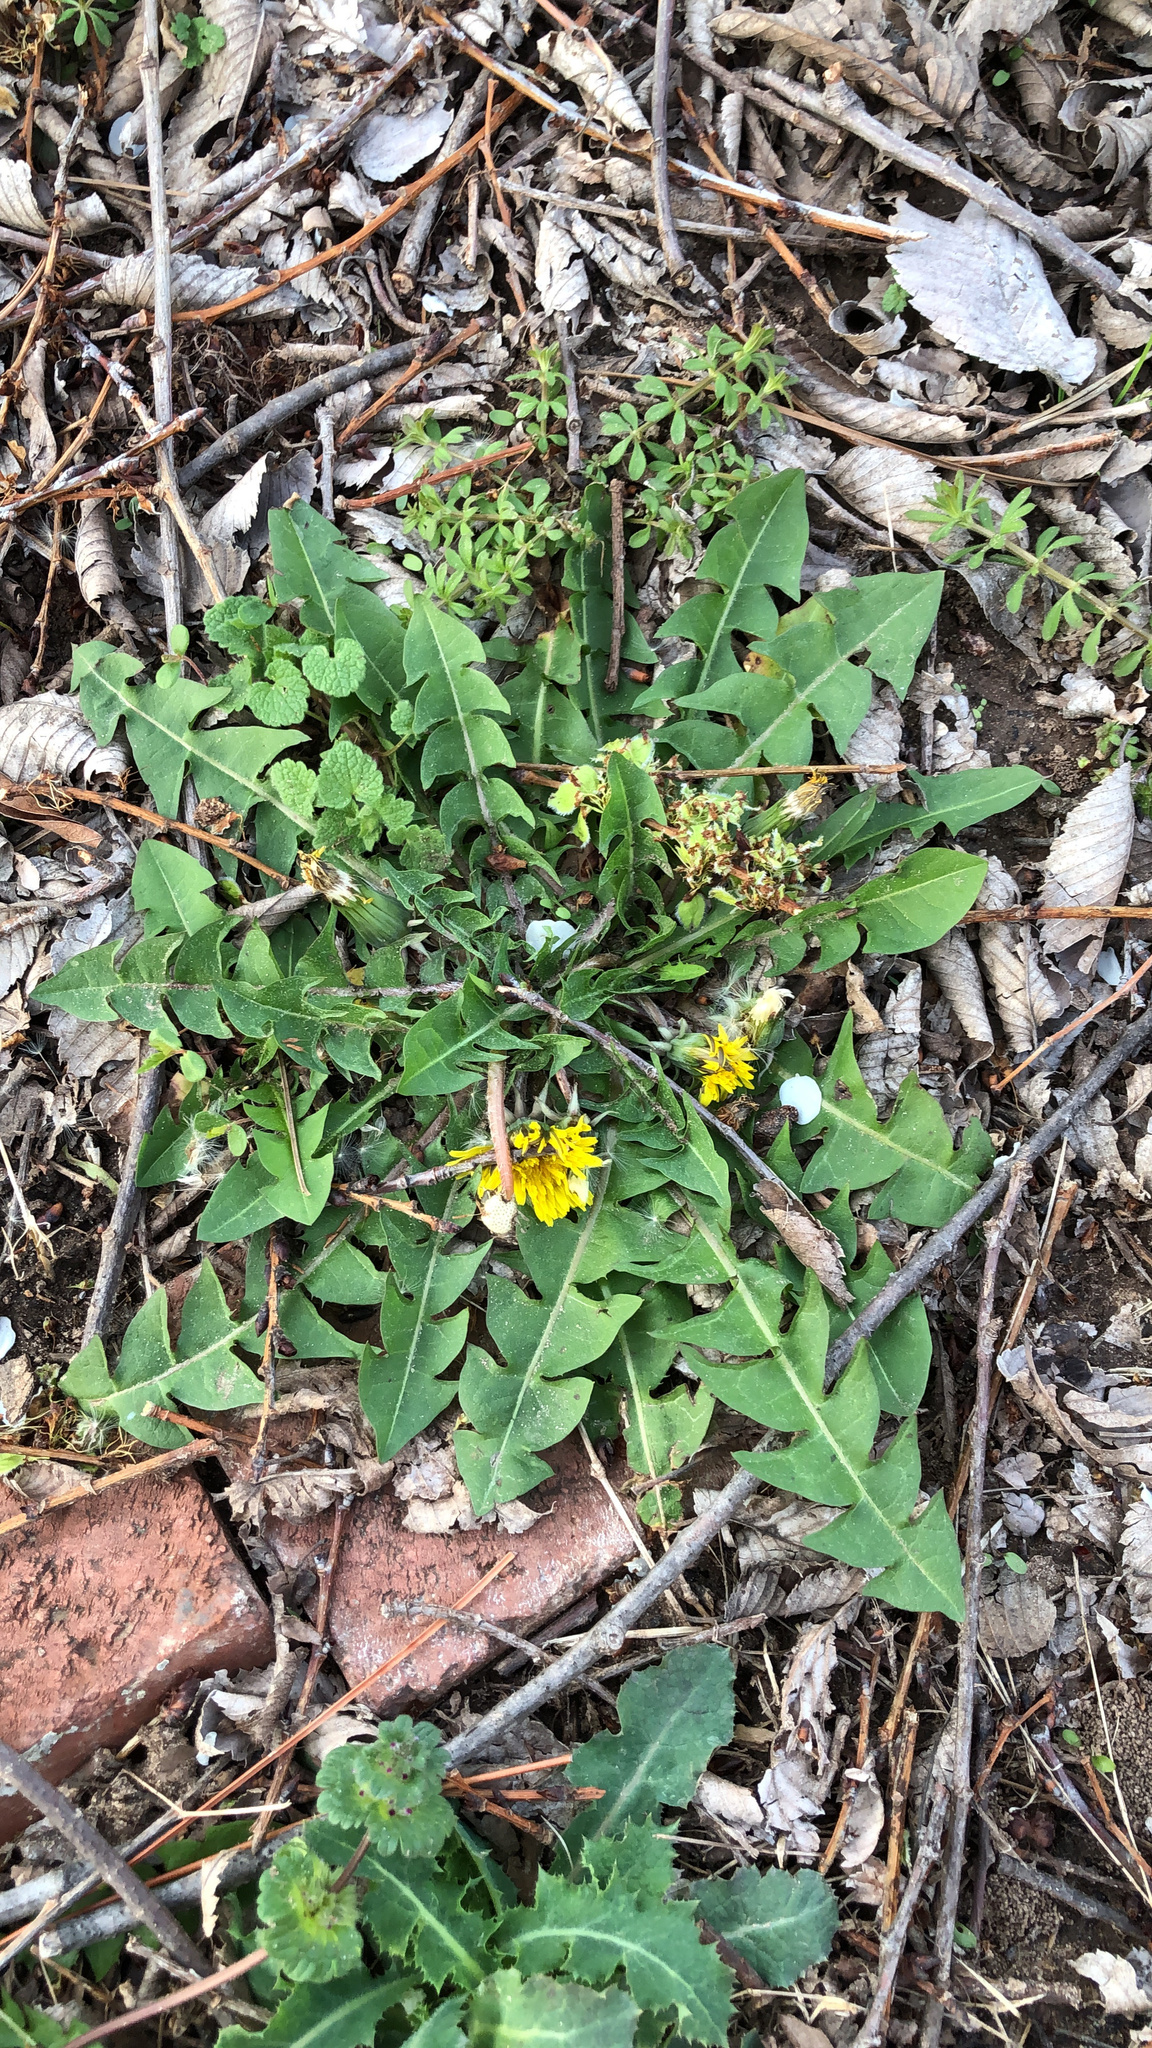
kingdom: Plantae
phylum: Tracheophyta
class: Magnoliopsida
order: Asterales
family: Asteraceae
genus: Taraxacum
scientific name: Taraxacum officinale
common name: Common dandelion
